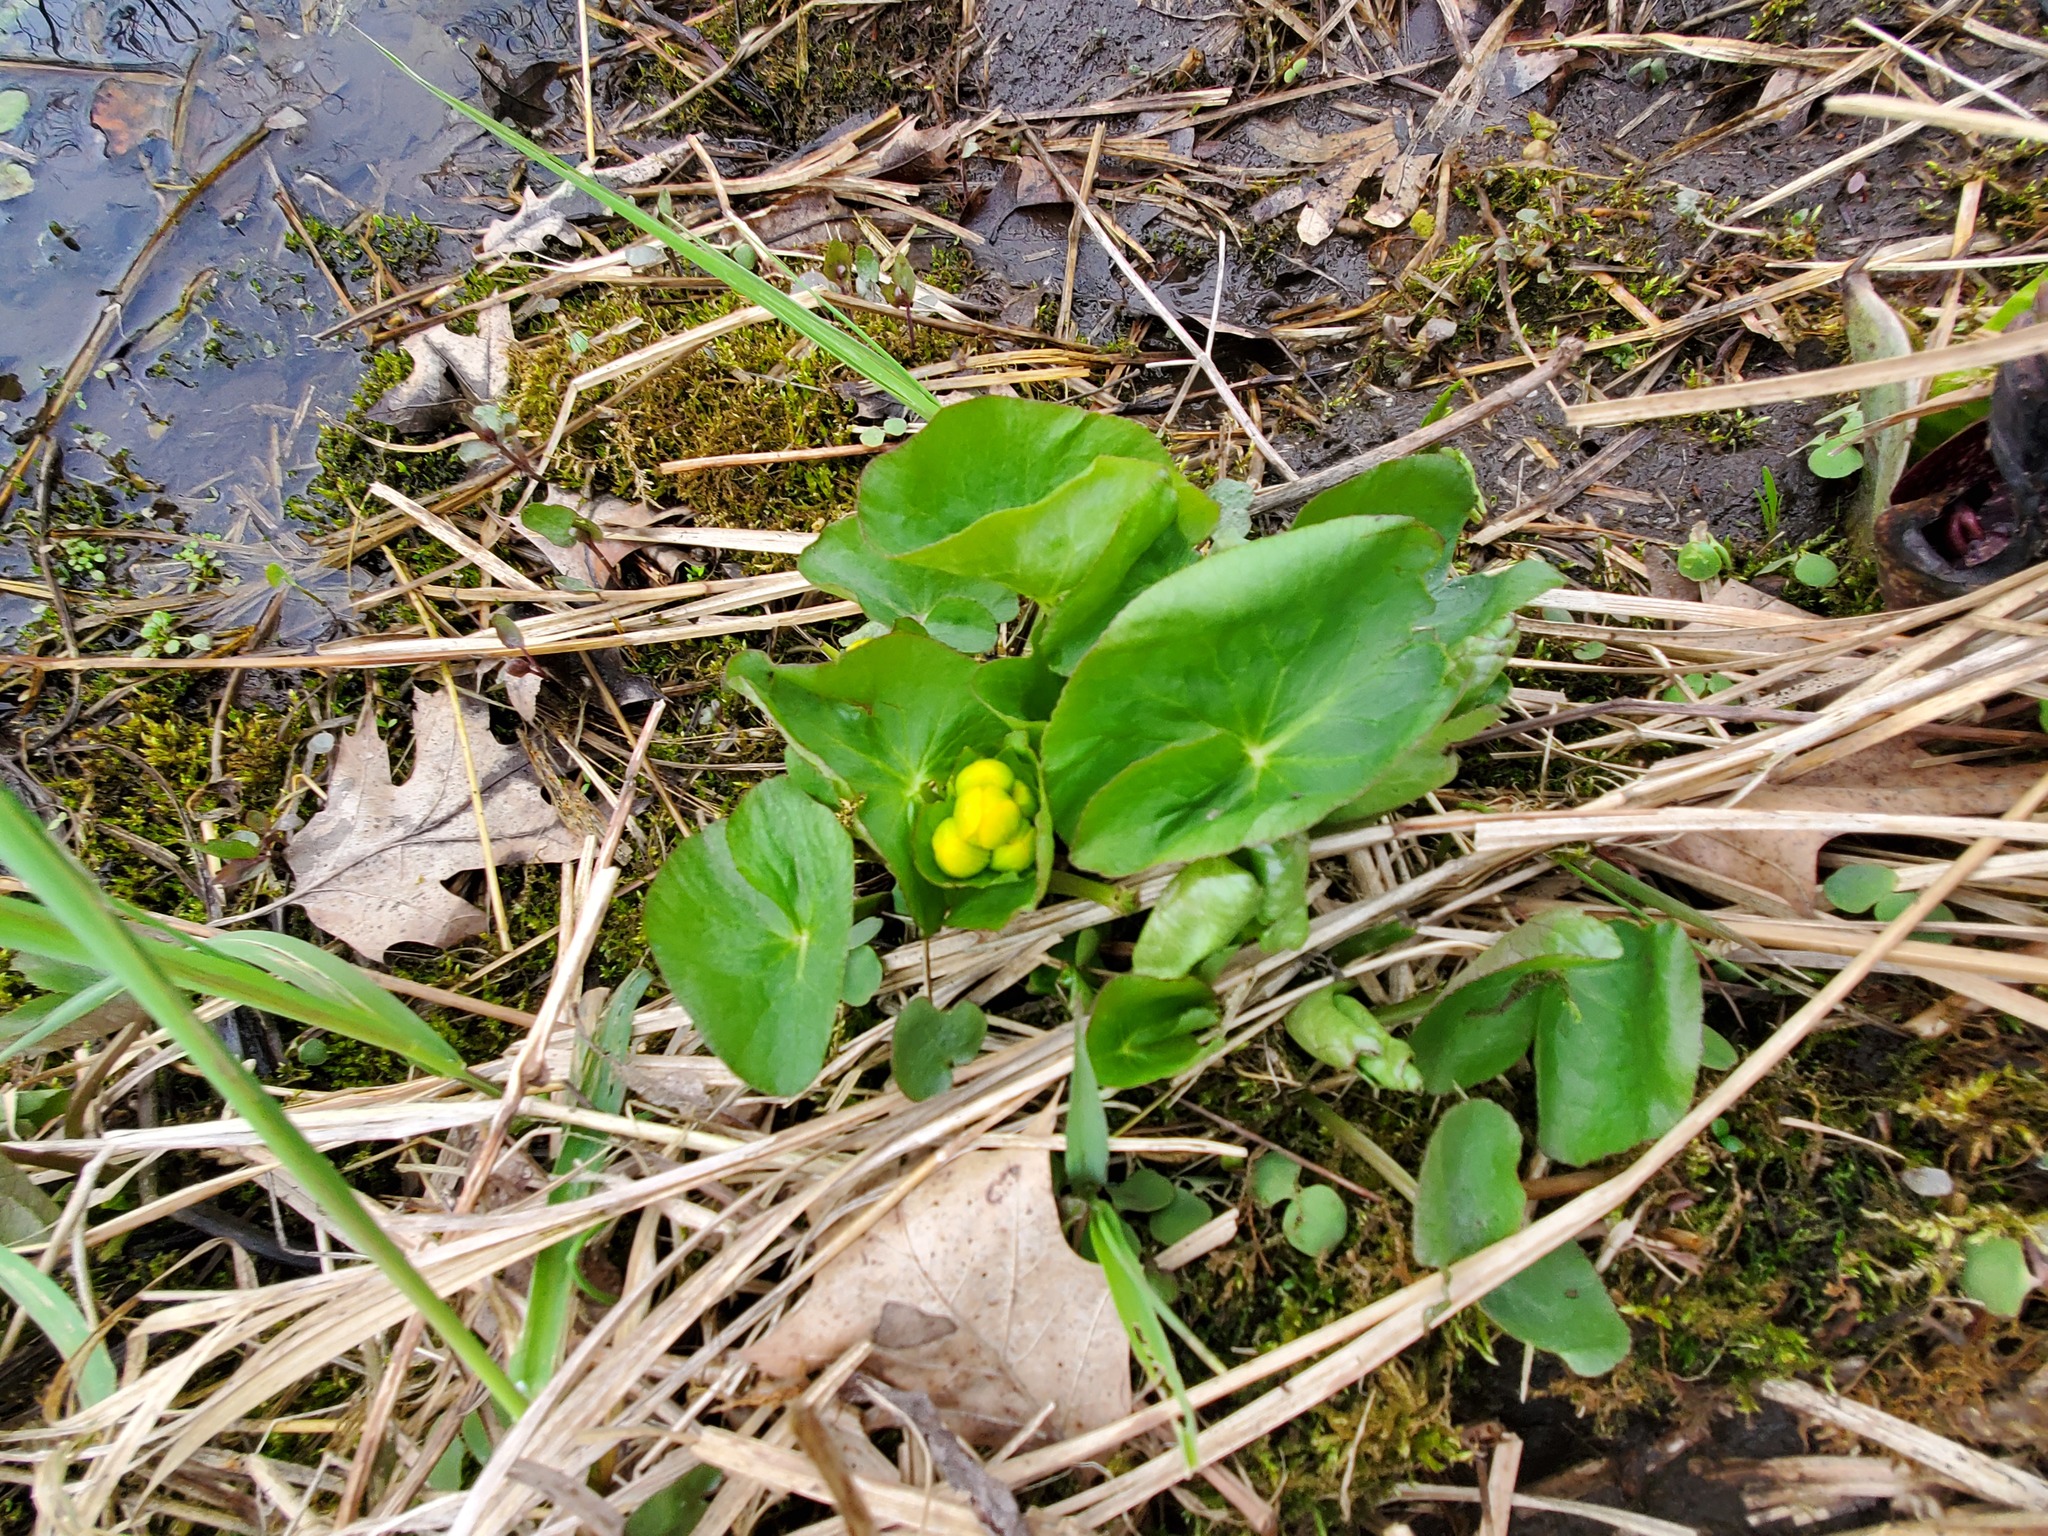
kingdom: Plantae
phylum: Tracheophyta
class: Magnoliopsida
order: Ranunculales
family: Ranunculaceae
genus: Caltha
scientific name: Caltha palustris
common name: Marsh marigold
